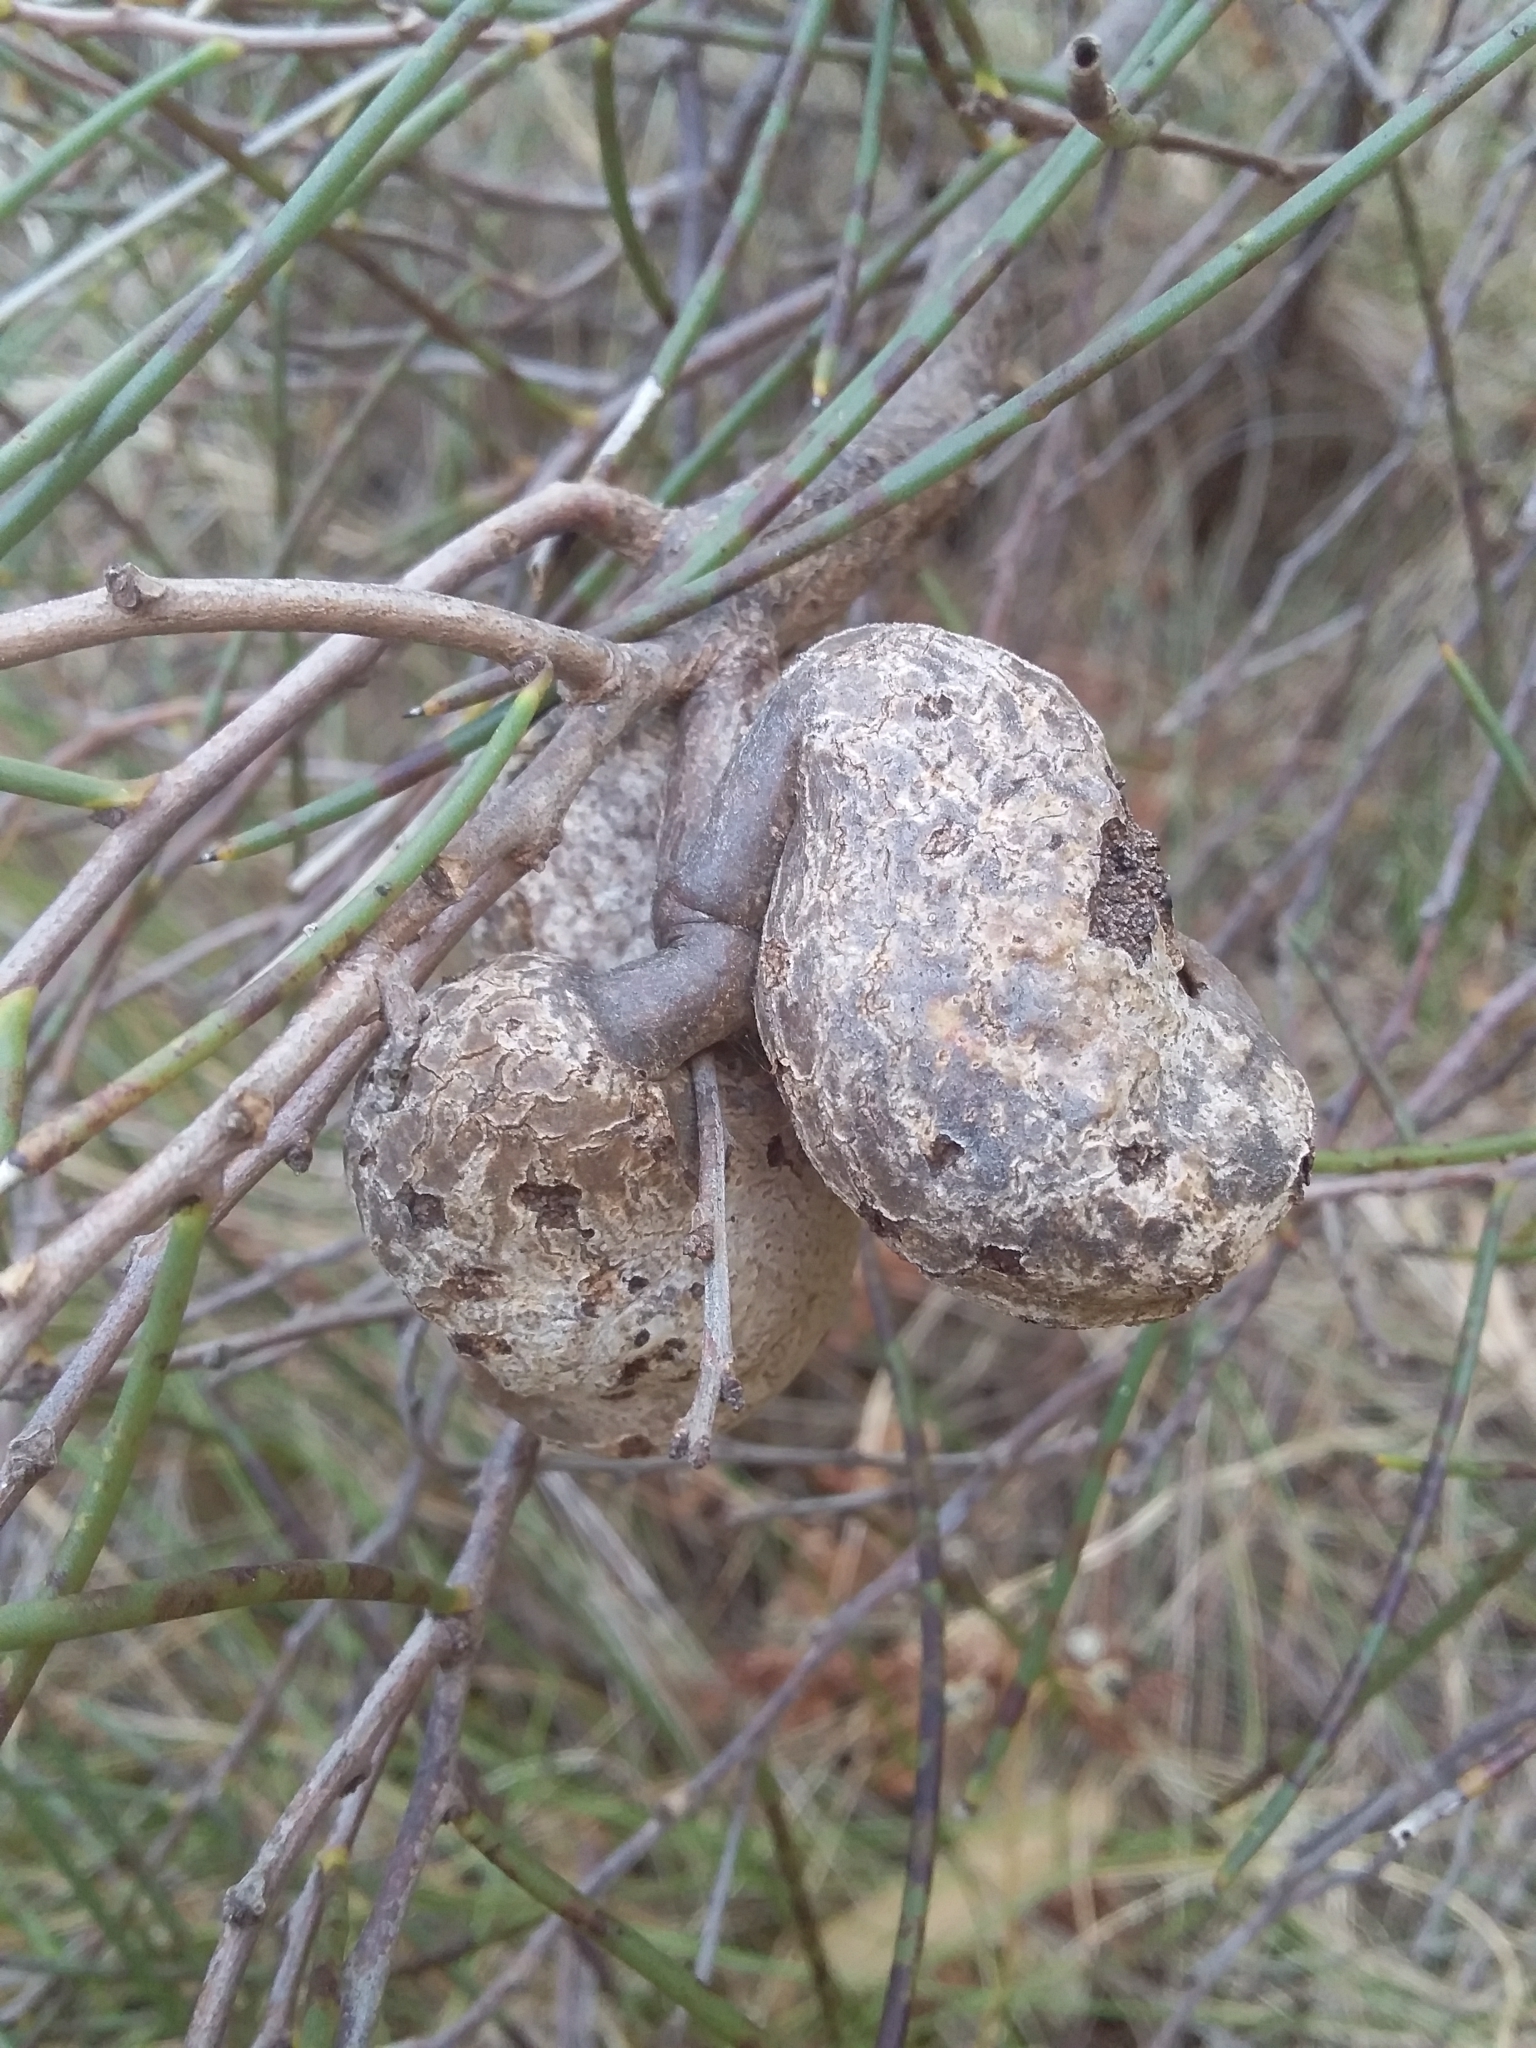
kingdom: Plantae
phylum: Tracheophyta
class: Magnoliopsida
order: Proteales
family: Proteaceae
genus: Hakea
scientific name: Hakea rostrata
